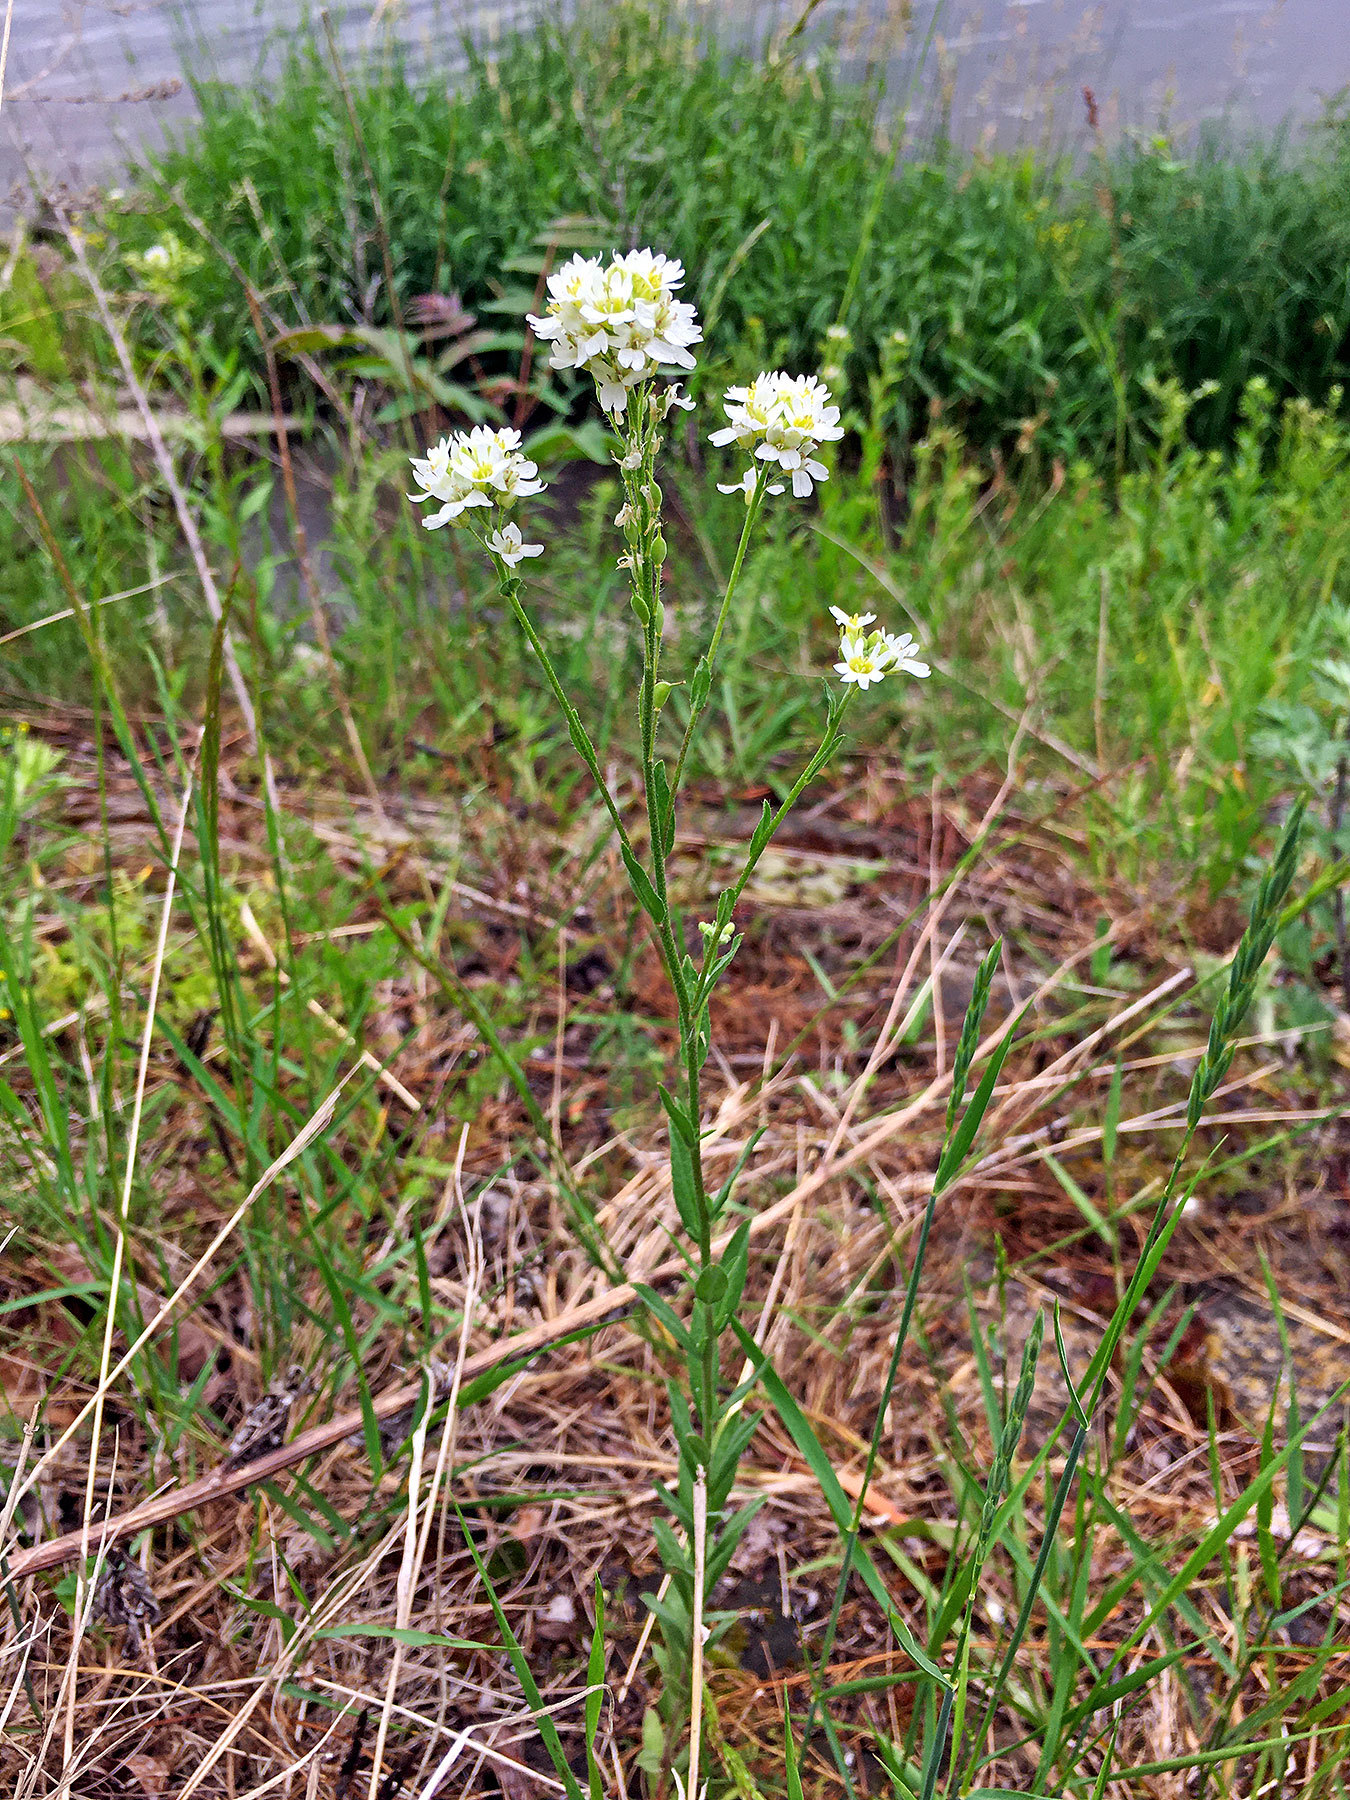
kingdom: Plantae
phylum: Tracheophyta
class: Magnoliopsida
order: Brassicales
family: Brassicaceae
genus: Berteroa
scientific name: Berteroa incana
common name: Hoary alison
